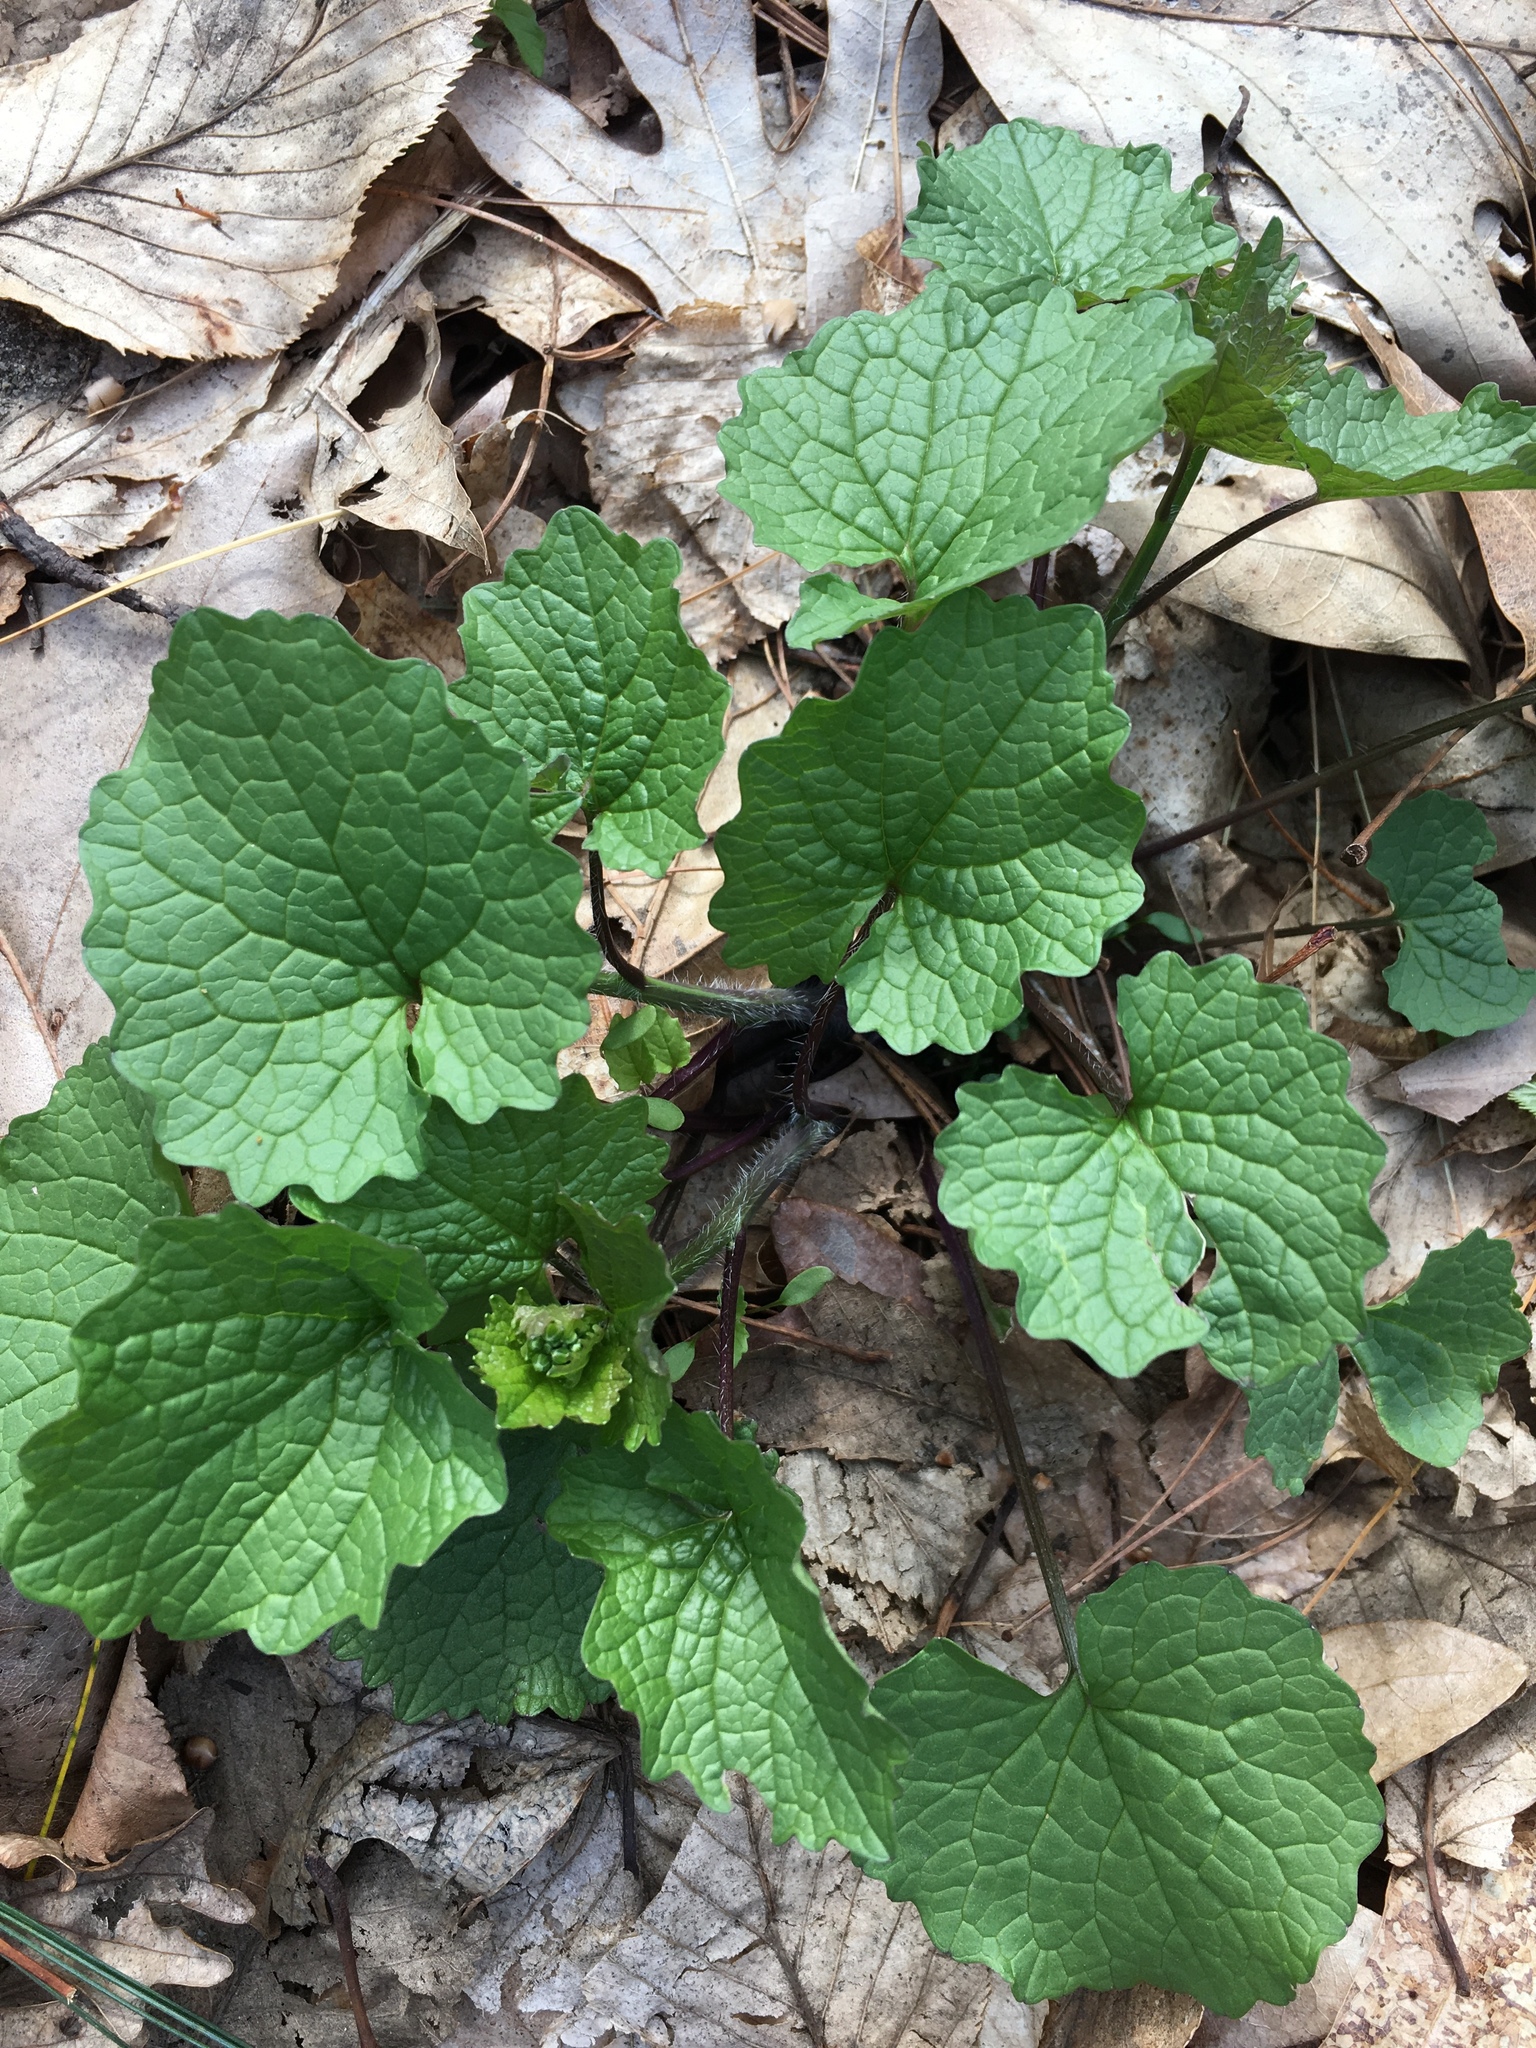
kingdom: Plantae
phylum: Tracheophyta
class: Magnoliopsida
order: Brassicales
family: Brassicaceae
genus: Alliaria
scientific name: Alliaria petiolata
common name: Garlic mustard
